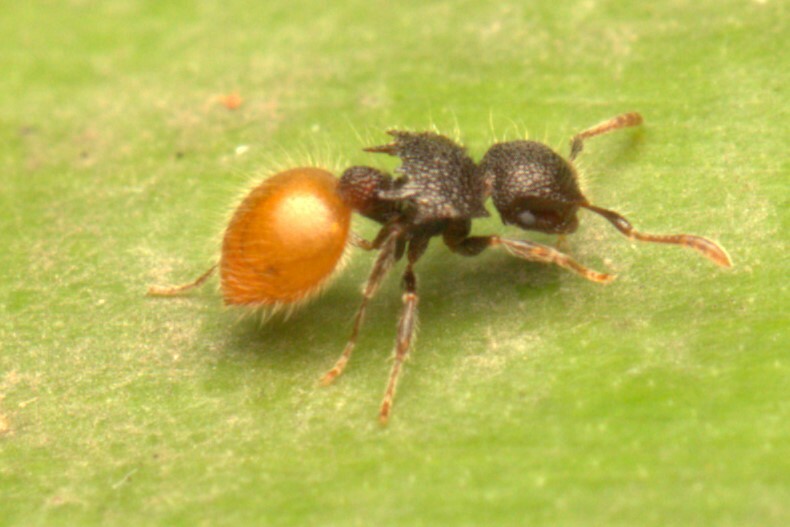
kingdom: Animalia
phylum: Arthropoda
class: Insecta
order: Hymenoptera
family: Formicidae
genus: Meranoplus
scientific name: Meranoplus hirsutus
